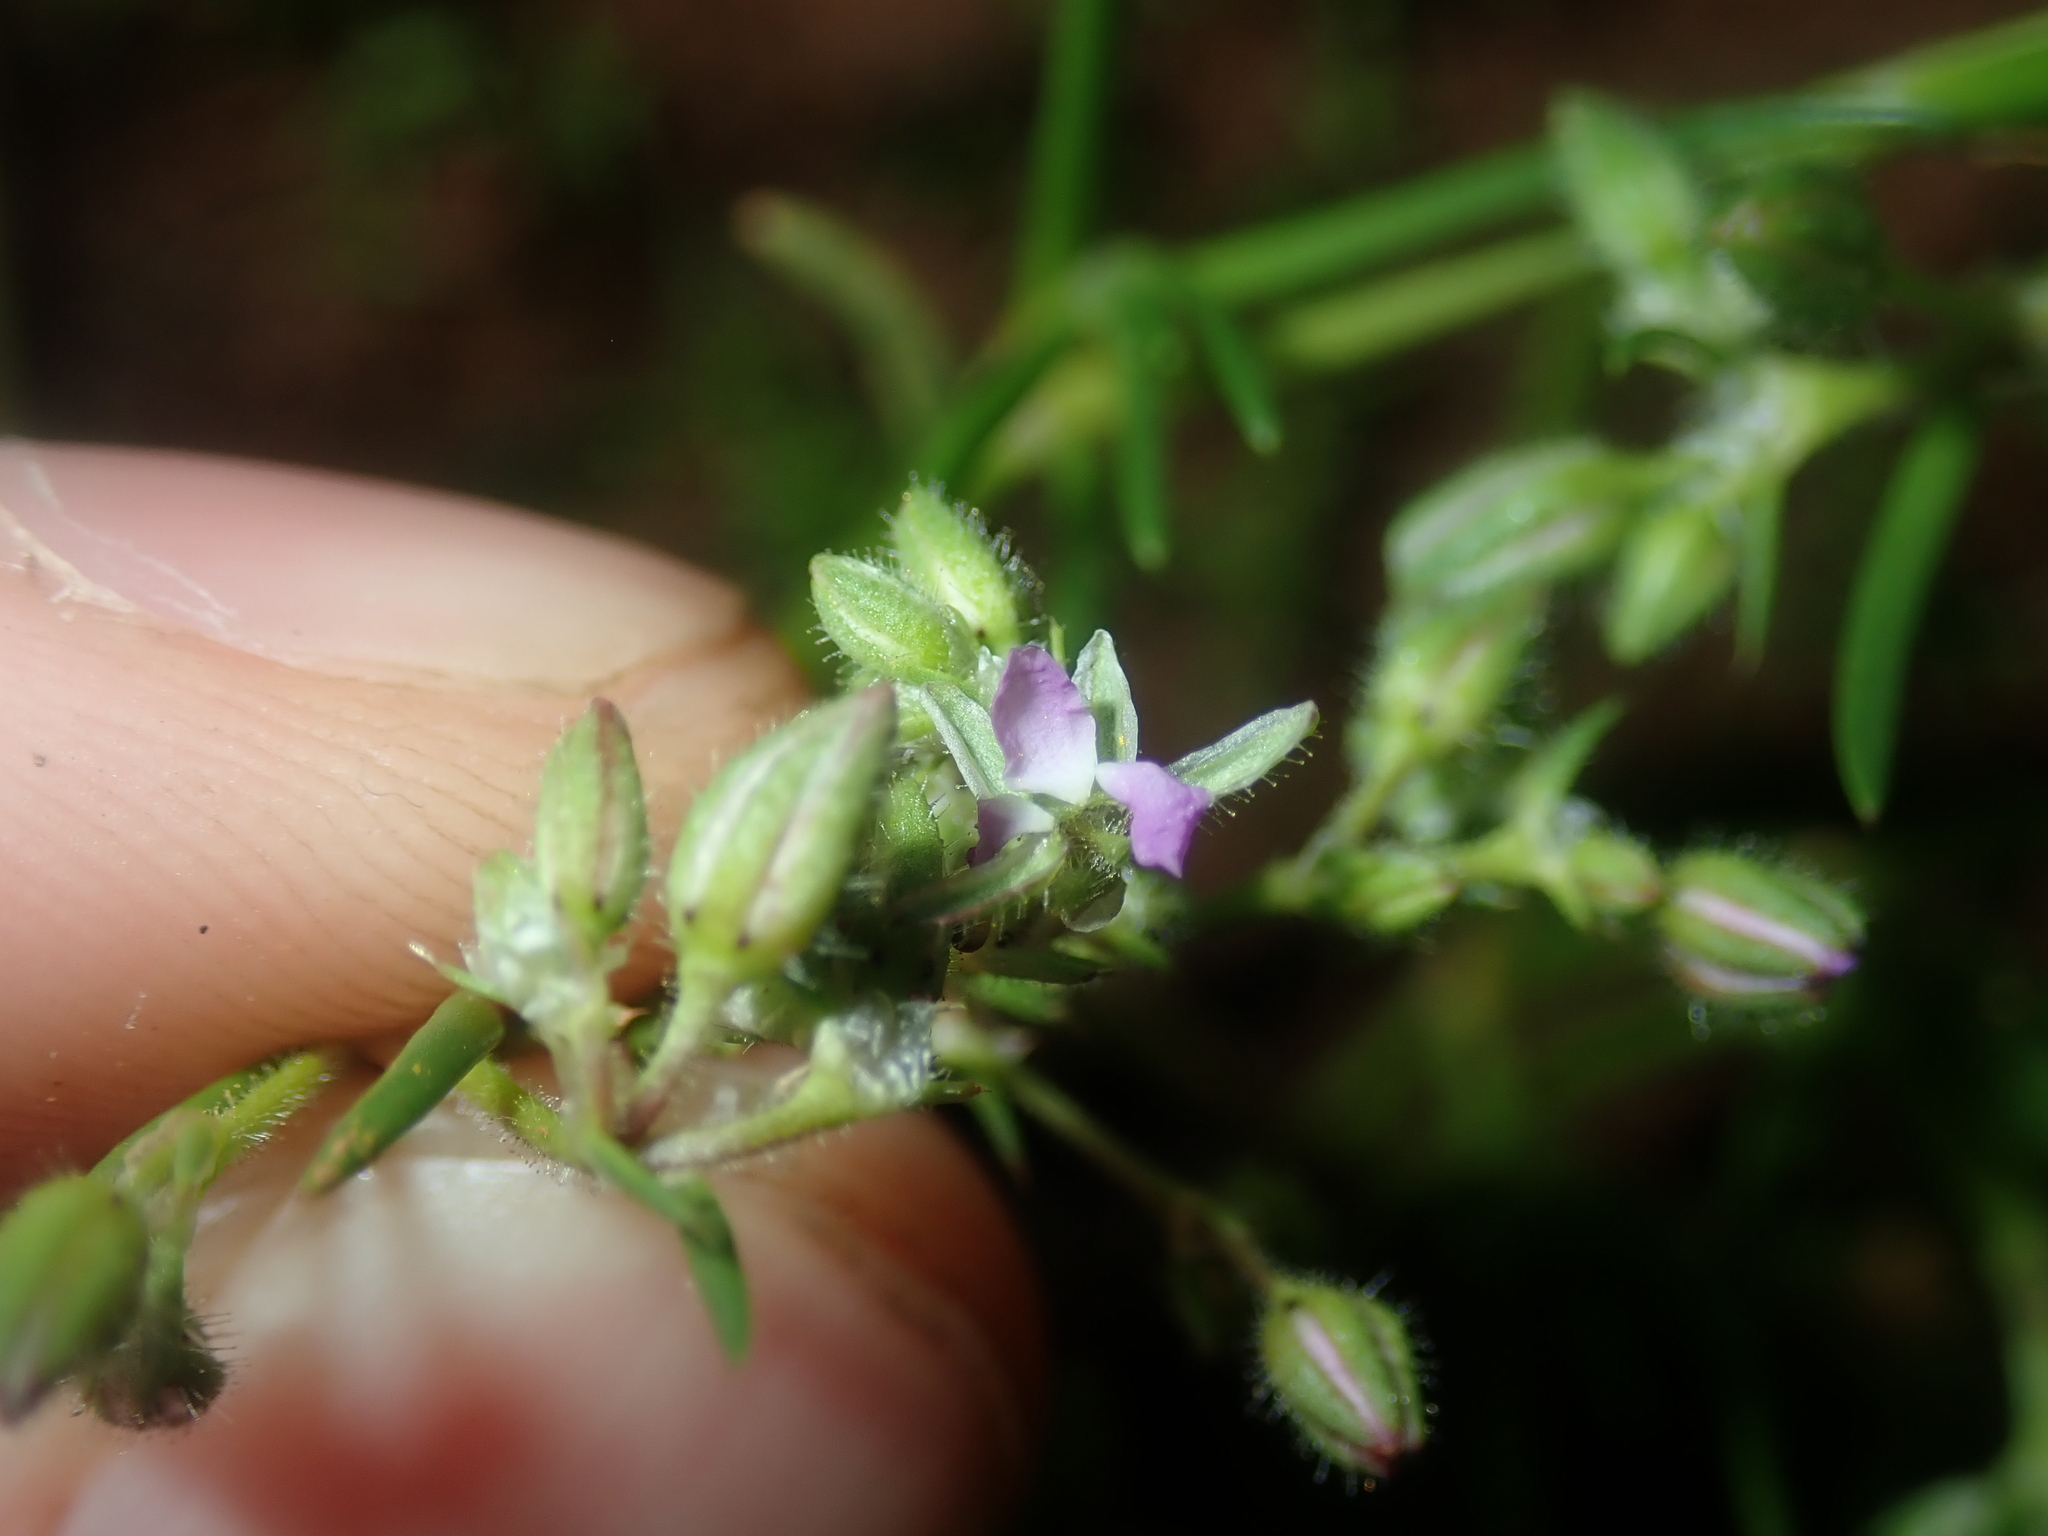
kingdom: Plantae
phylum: Tracheophyta
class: Magnoliopsida
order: Caryophyllales
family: Caryophyllaceae
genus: Spergularia
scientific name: Spergularia marina
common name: Lesser sea-spurrey
